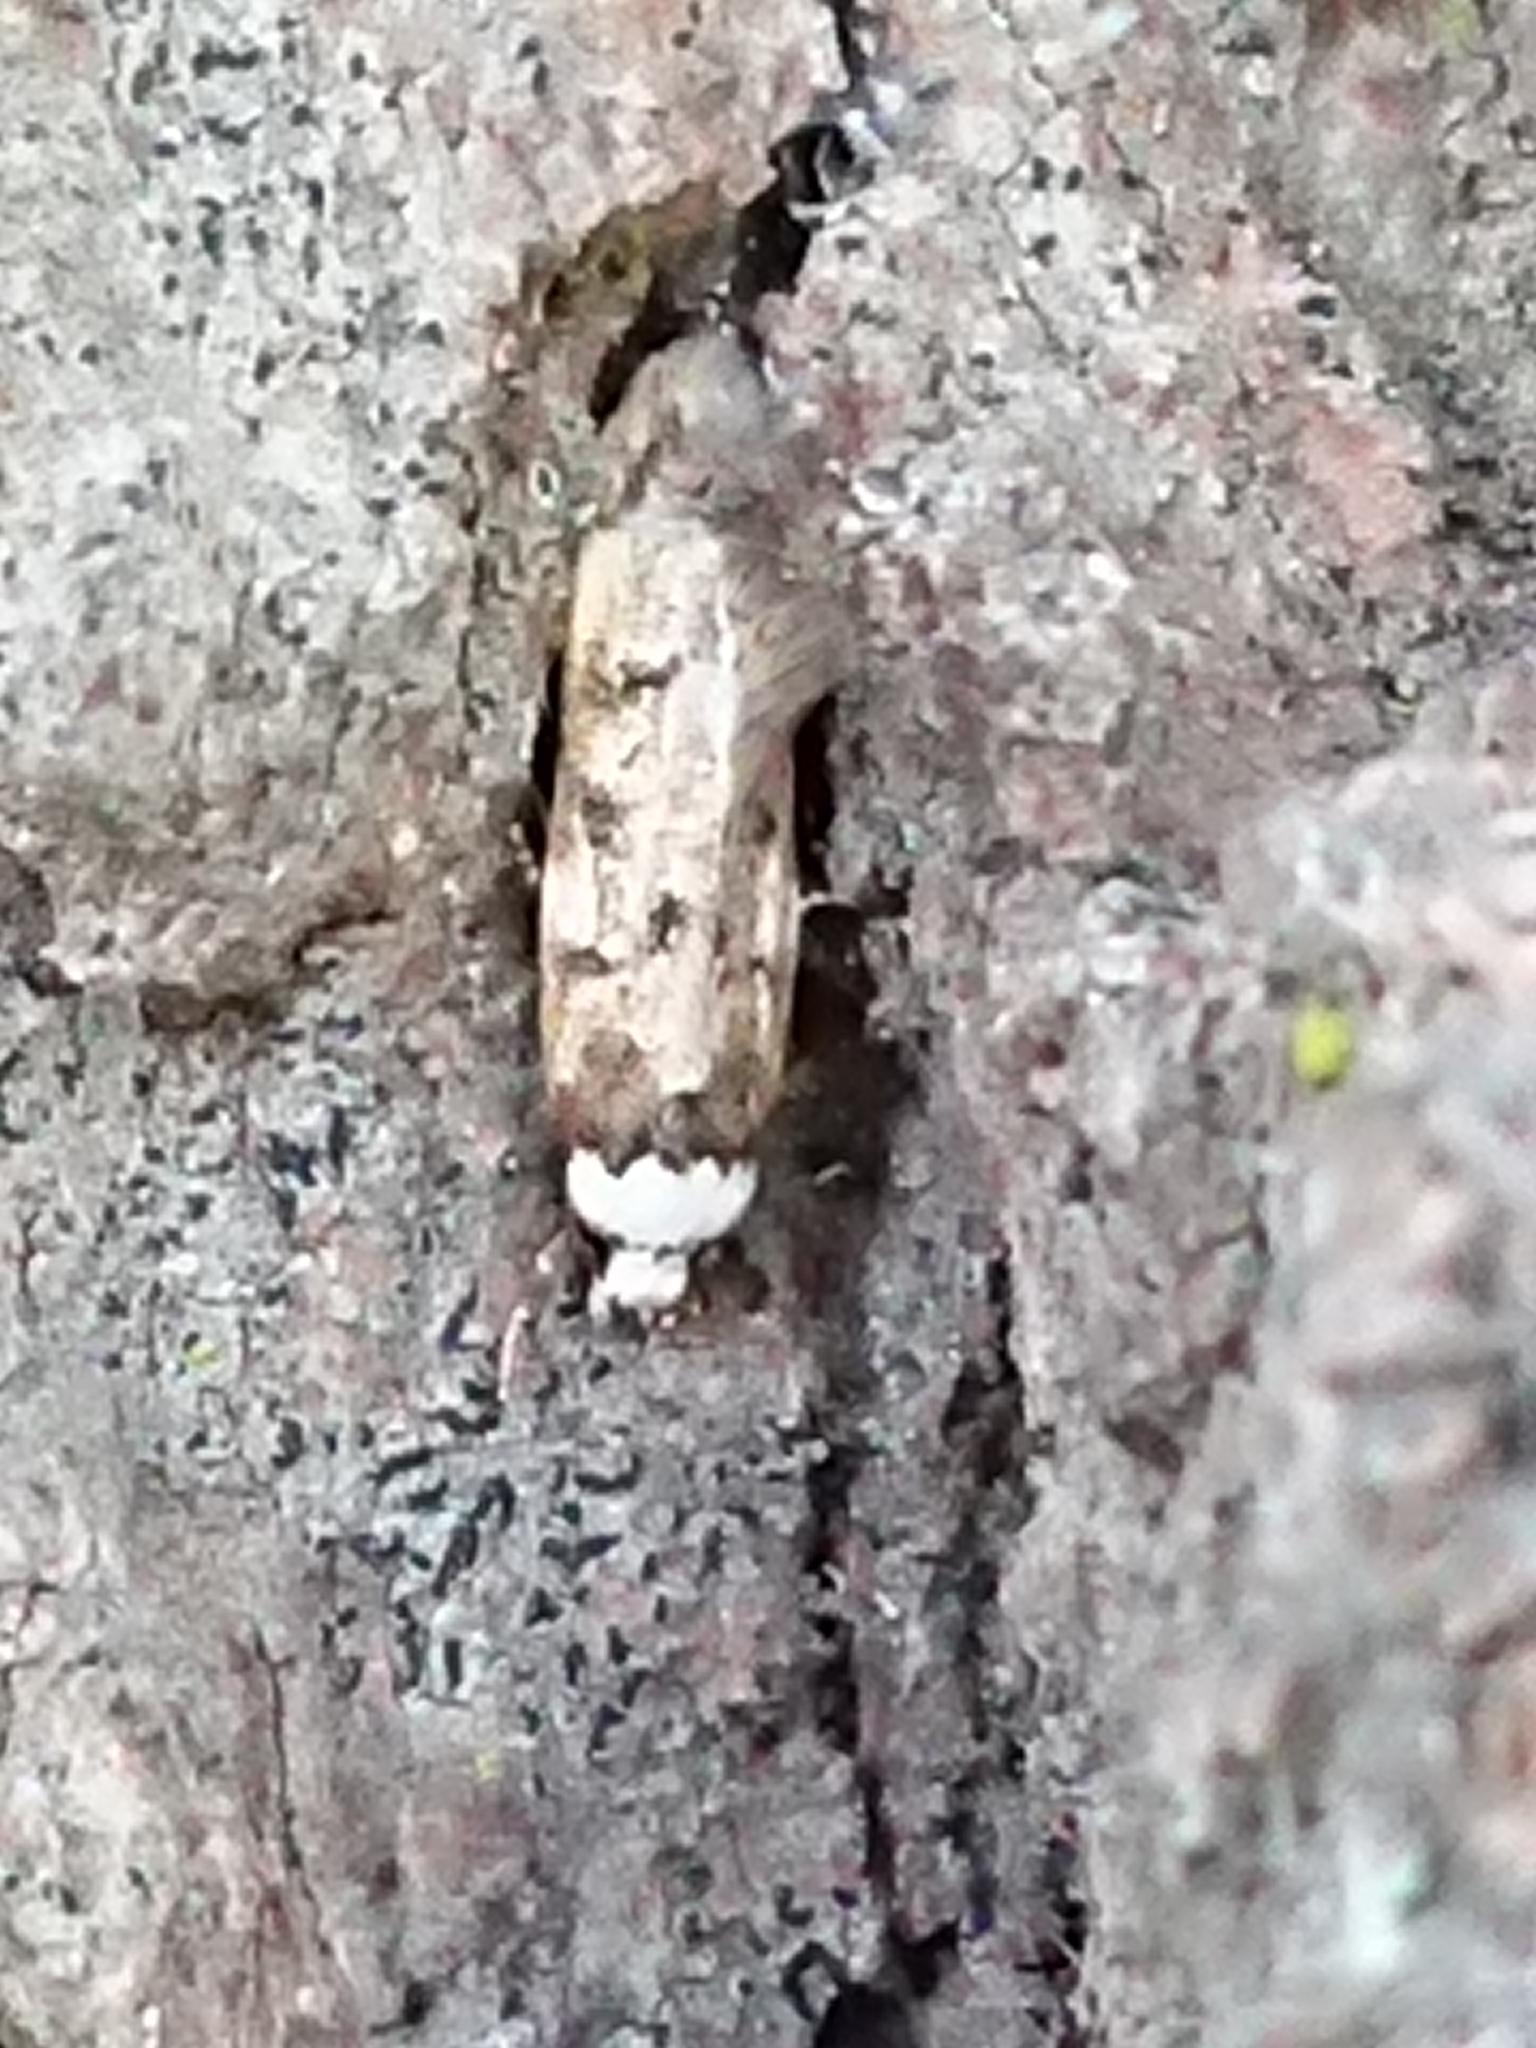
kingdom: Animalia
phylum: Arthropoda
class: Insecta
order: Lepidoptera
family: Oecophoridae
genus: Endrosis
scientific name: Endrosis sarcitrella
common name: White-shouldered house moth
